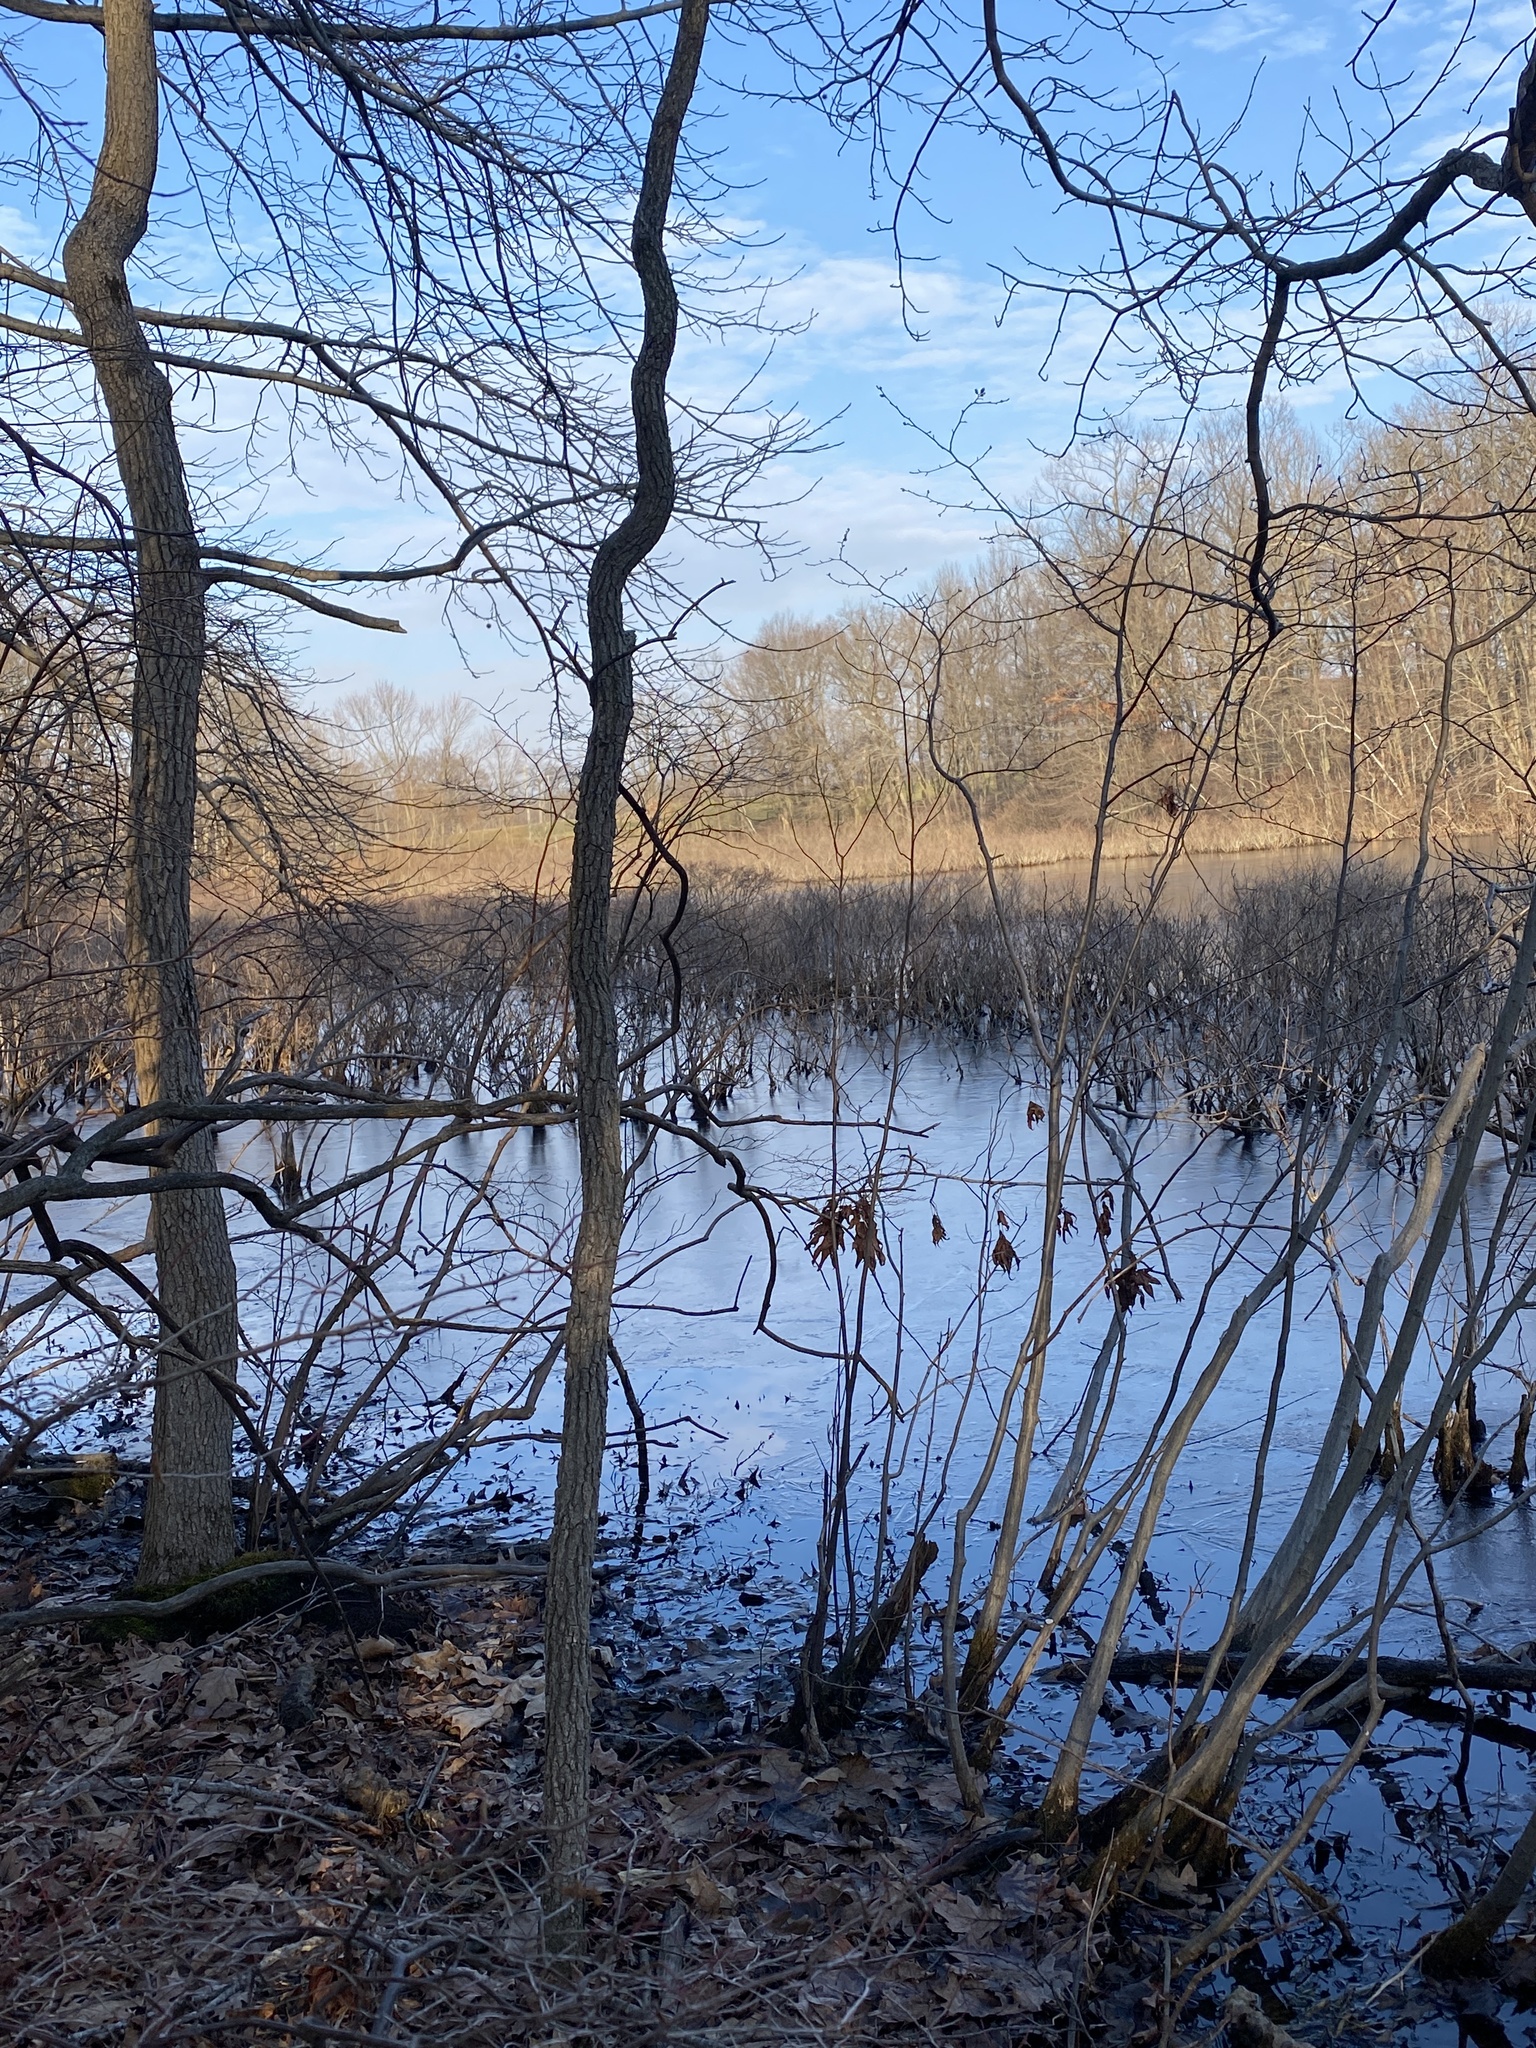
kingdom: Plantae
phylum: Tracheophyta
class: Magnoliopsida
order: Geraniales
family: Geraniaceae
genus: Geranium
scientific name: Geranium robertianum
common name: Herb-robert
